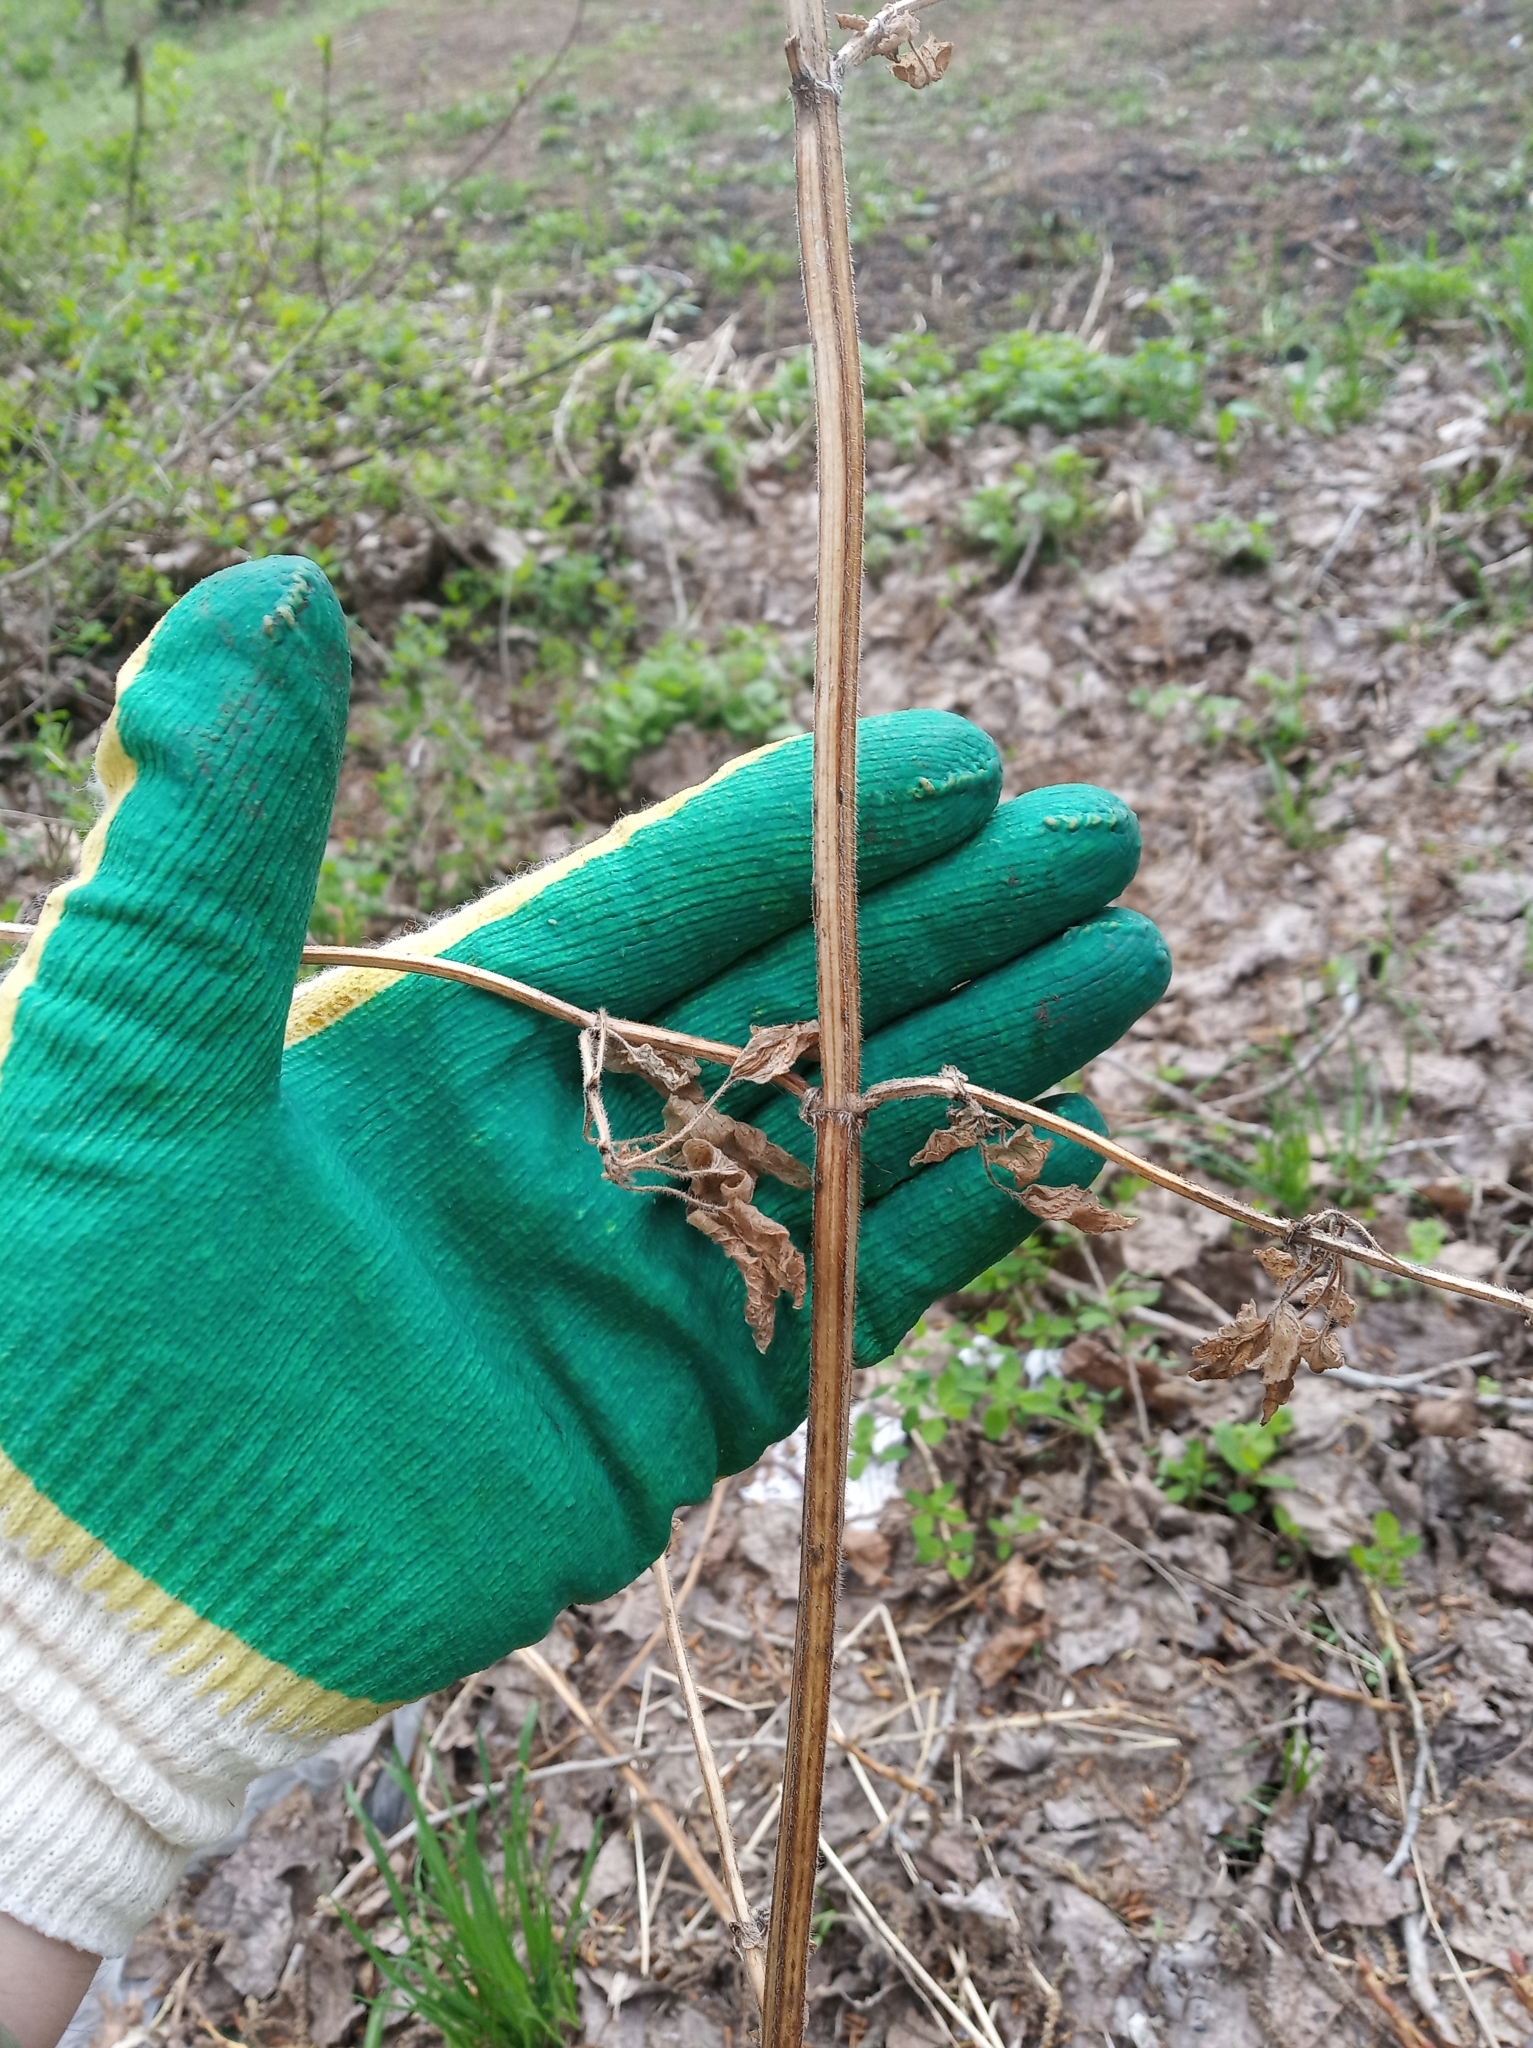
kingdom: Plantae
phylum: Tracheophyta
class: Magnoliopsida
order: Lamiales
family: Lamiaceae
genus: Leonurus
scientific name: Leonurus quinquelobatus
